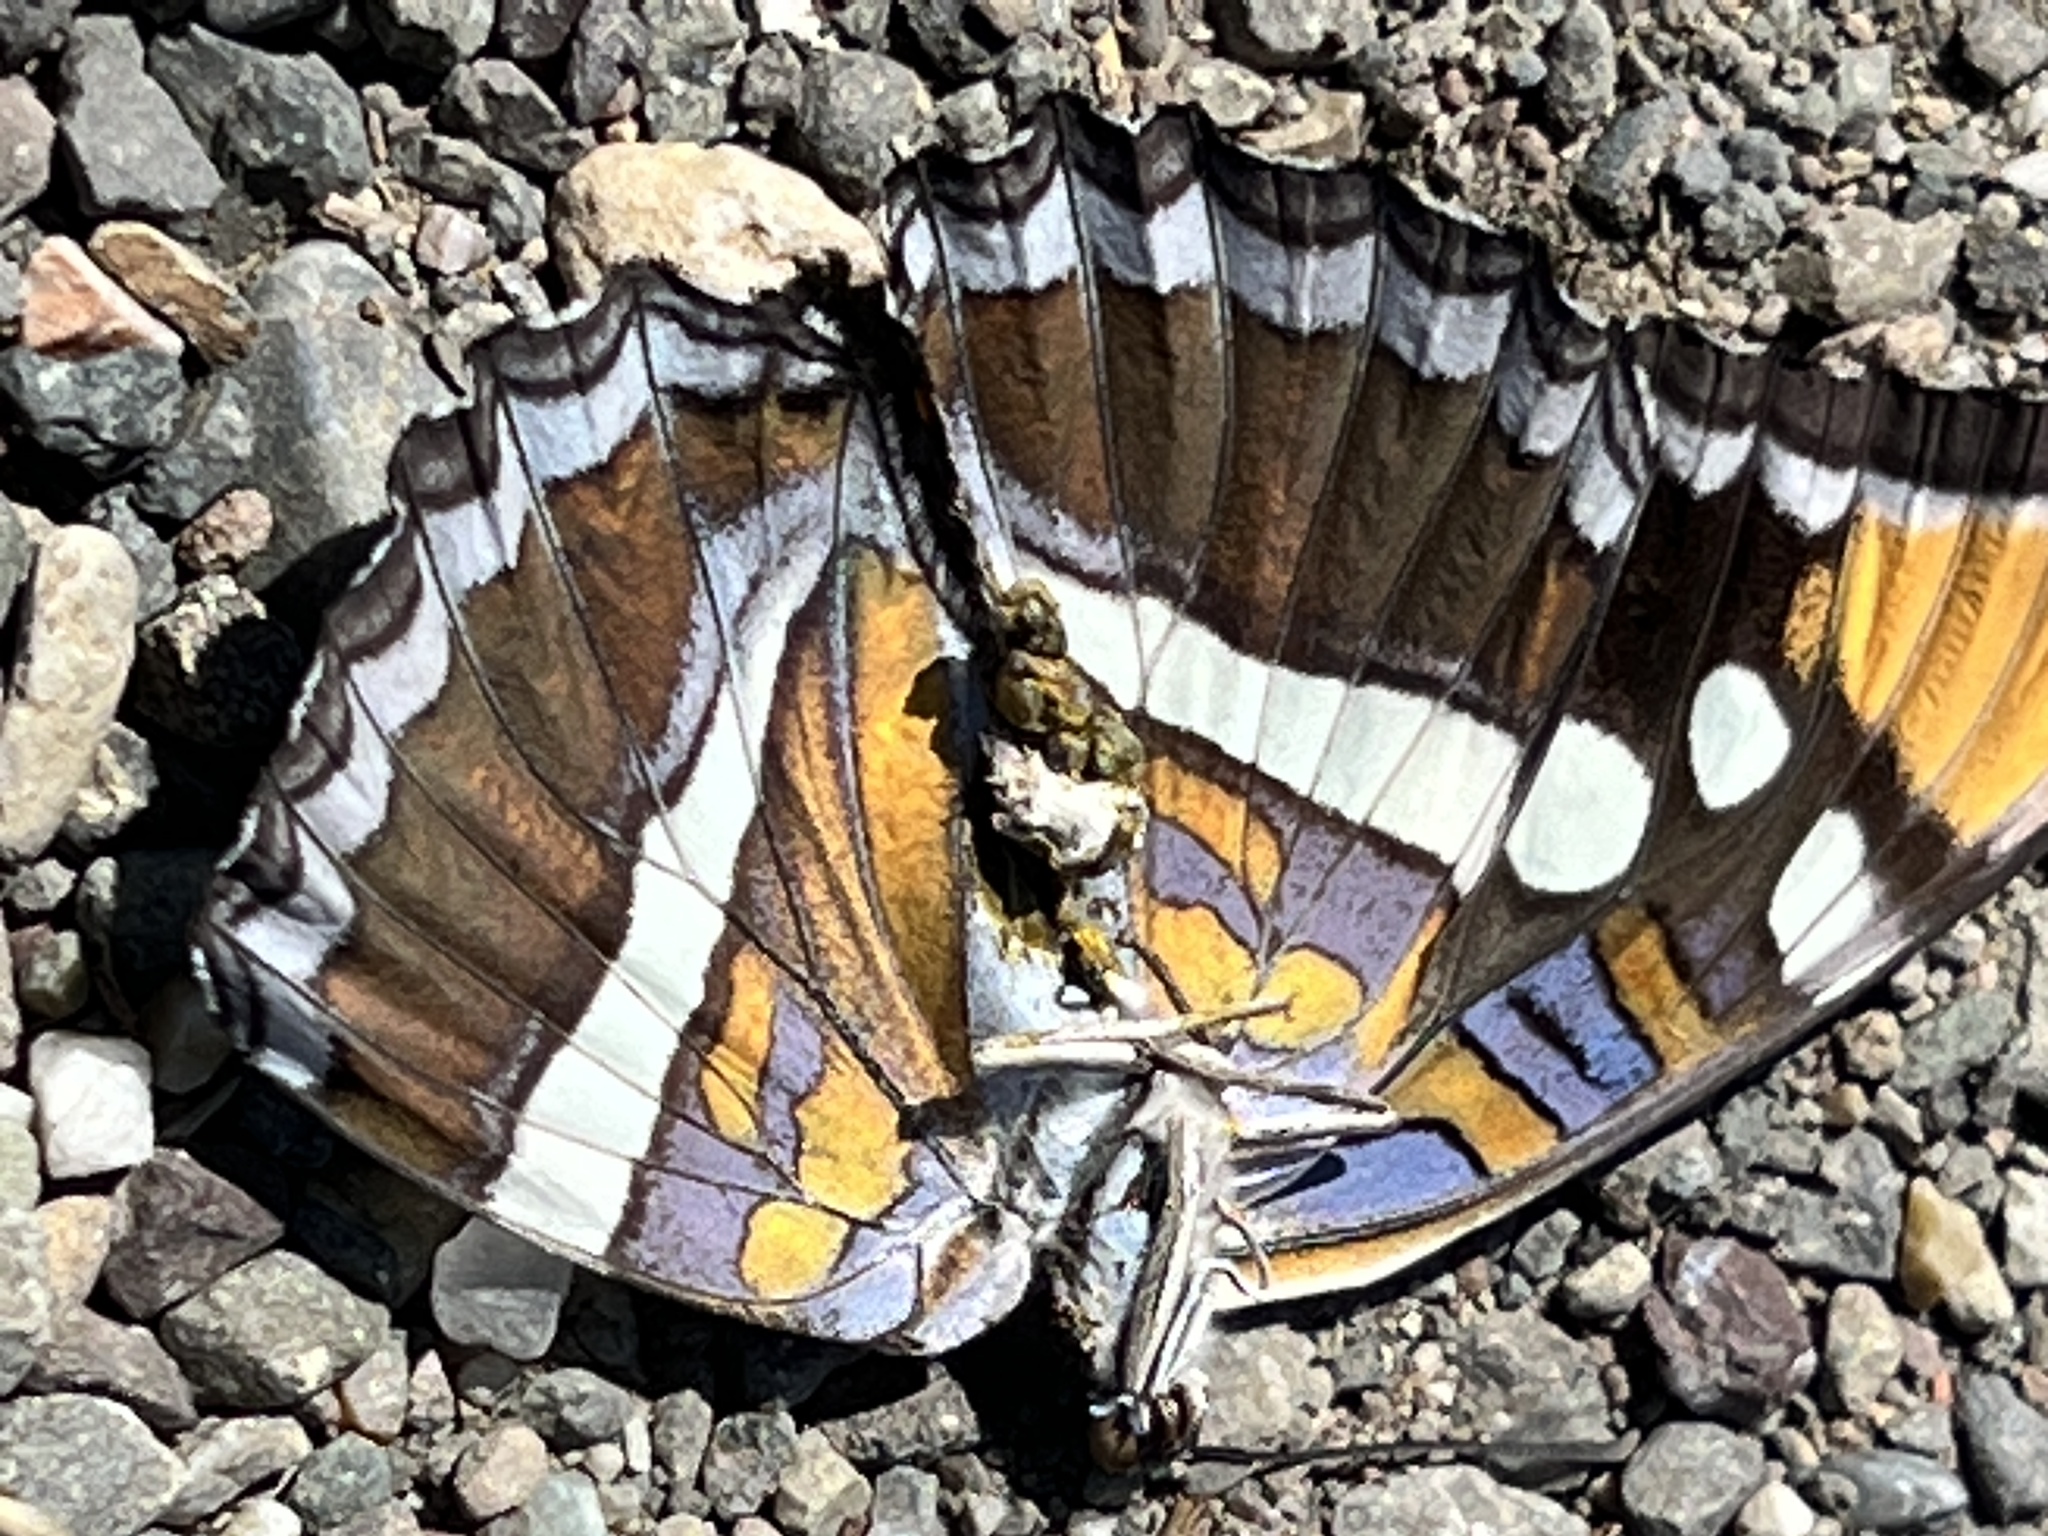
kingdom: Animalia
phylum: Arthropoda
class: Insecta
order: Lepidoptera
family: Nymphalidae
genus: Limenitis
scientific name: Limenitis bredowii
